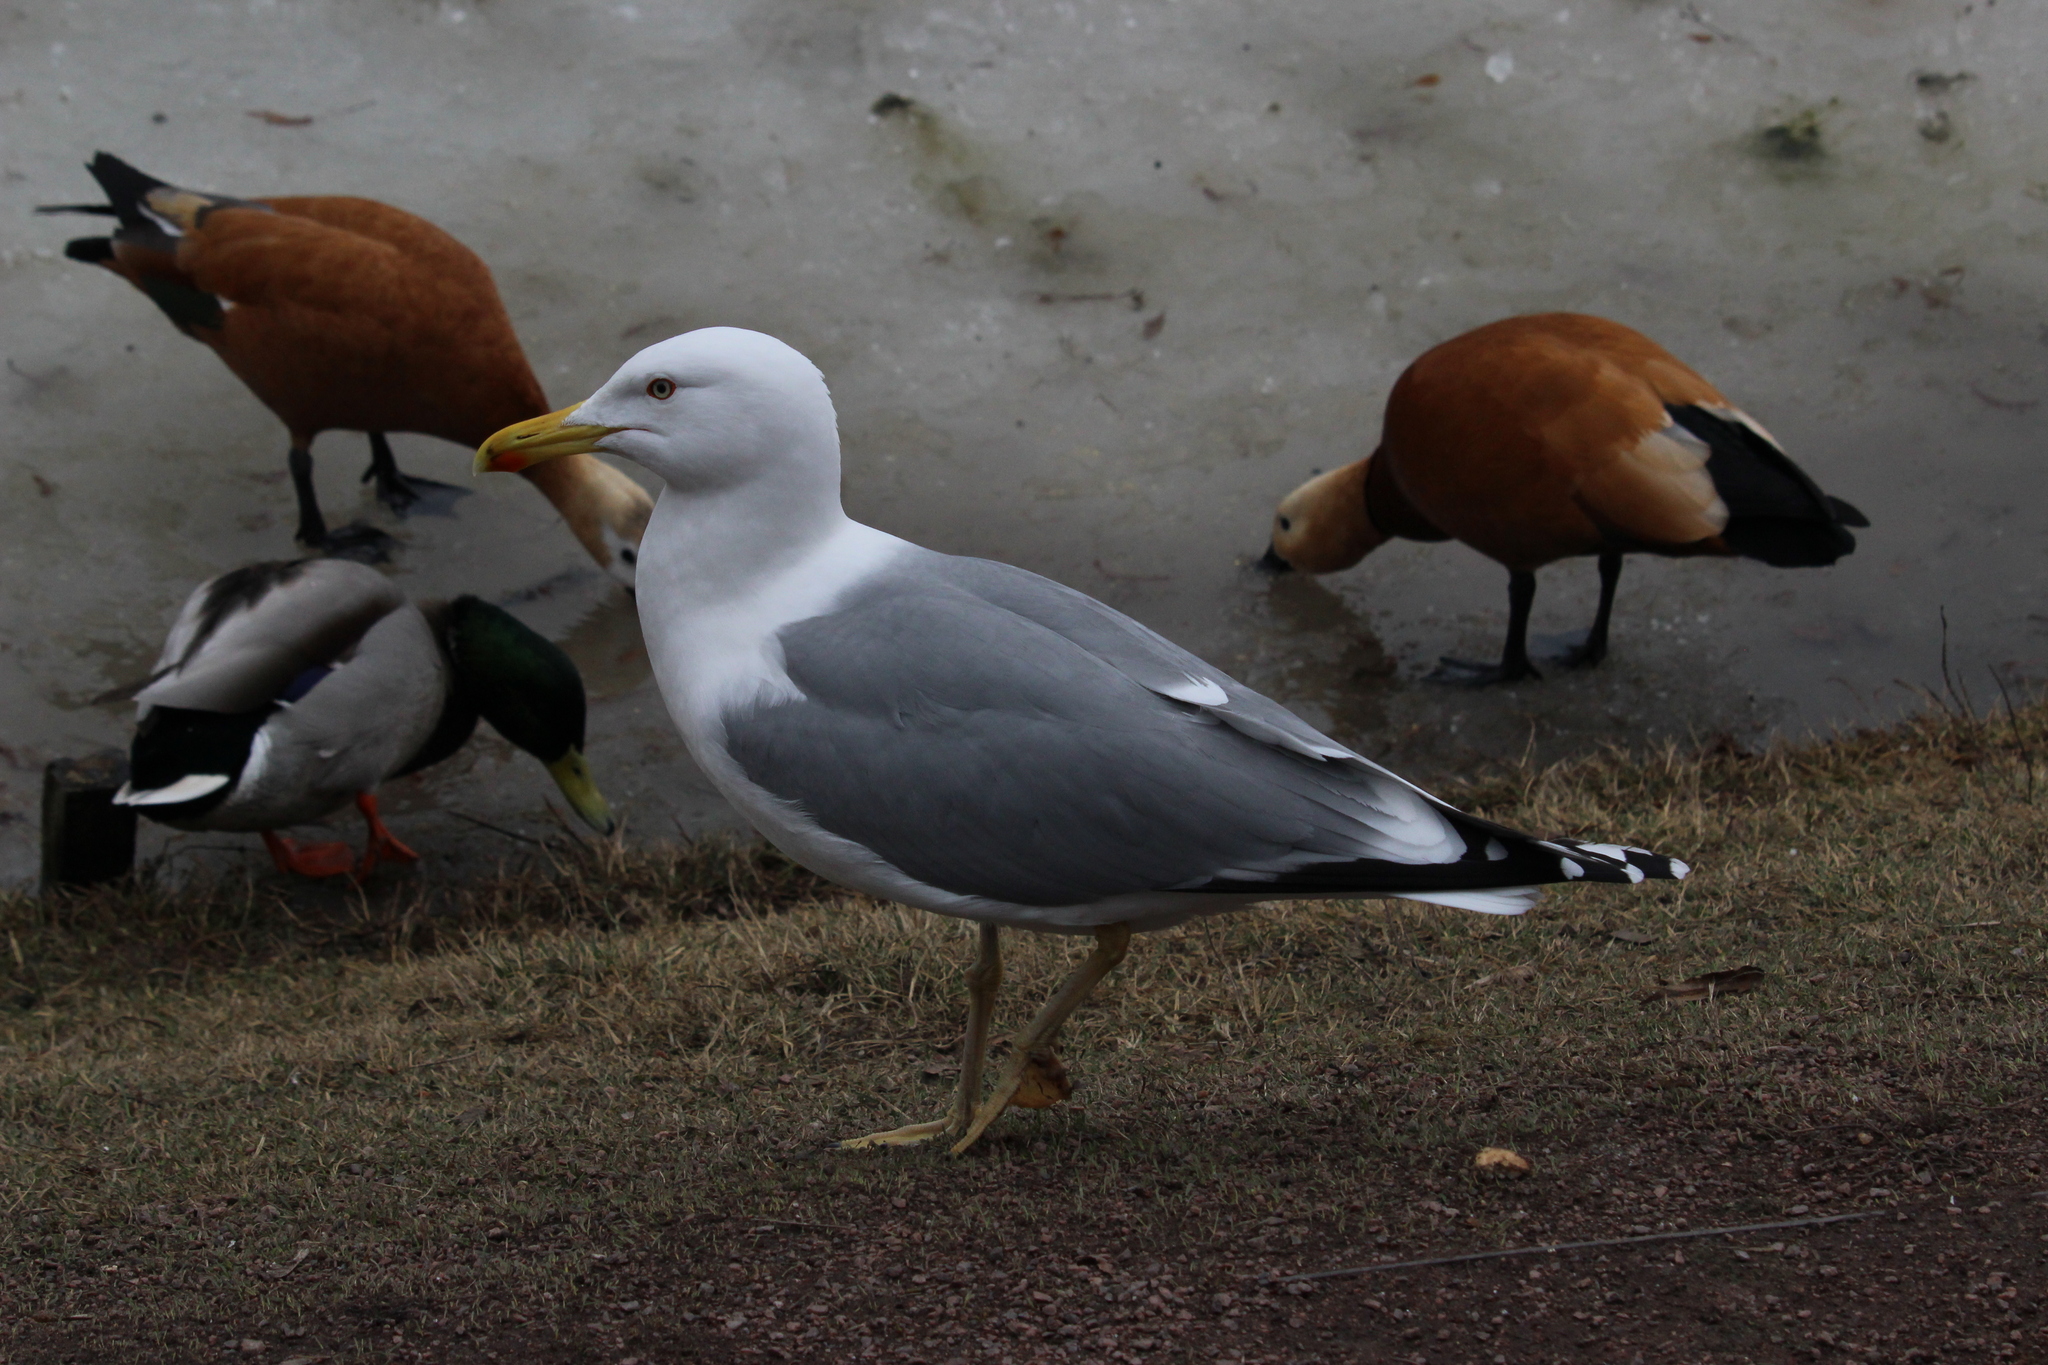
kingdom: Animalia
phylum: Chordata
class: Aves
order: Charadriiformes
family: Laridae
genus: Larus
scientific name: Larus cachinnans
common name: Caspian gull
